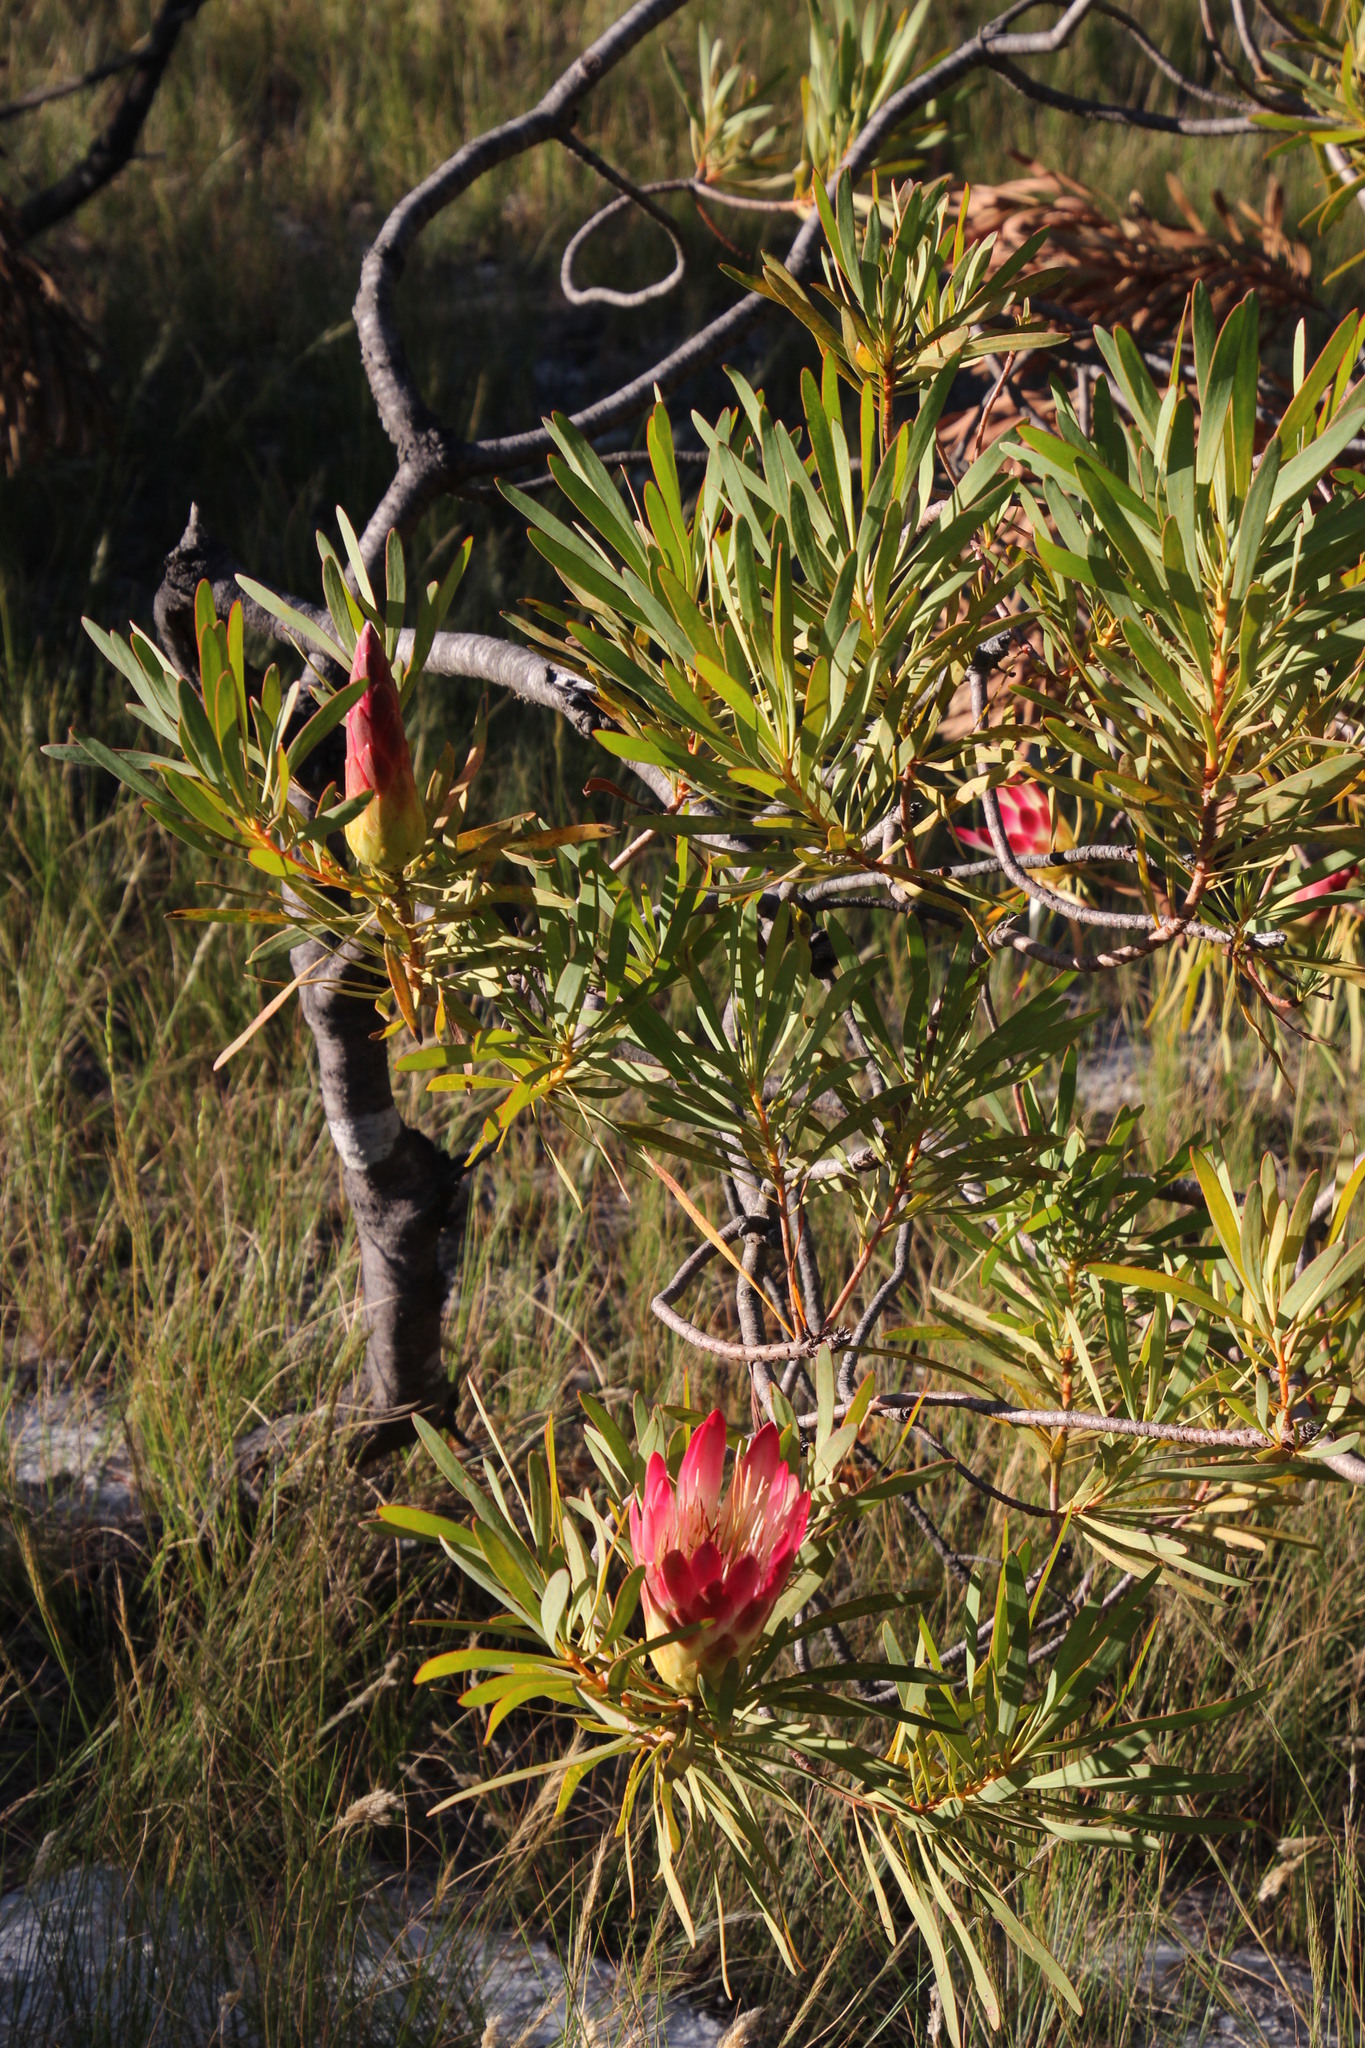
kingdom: Plantae
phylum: Tracheophyta
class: Magnoliopsida
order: Proteales
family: Proteaceae
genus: Protea
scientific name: Protea repens
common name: Sugarbush
